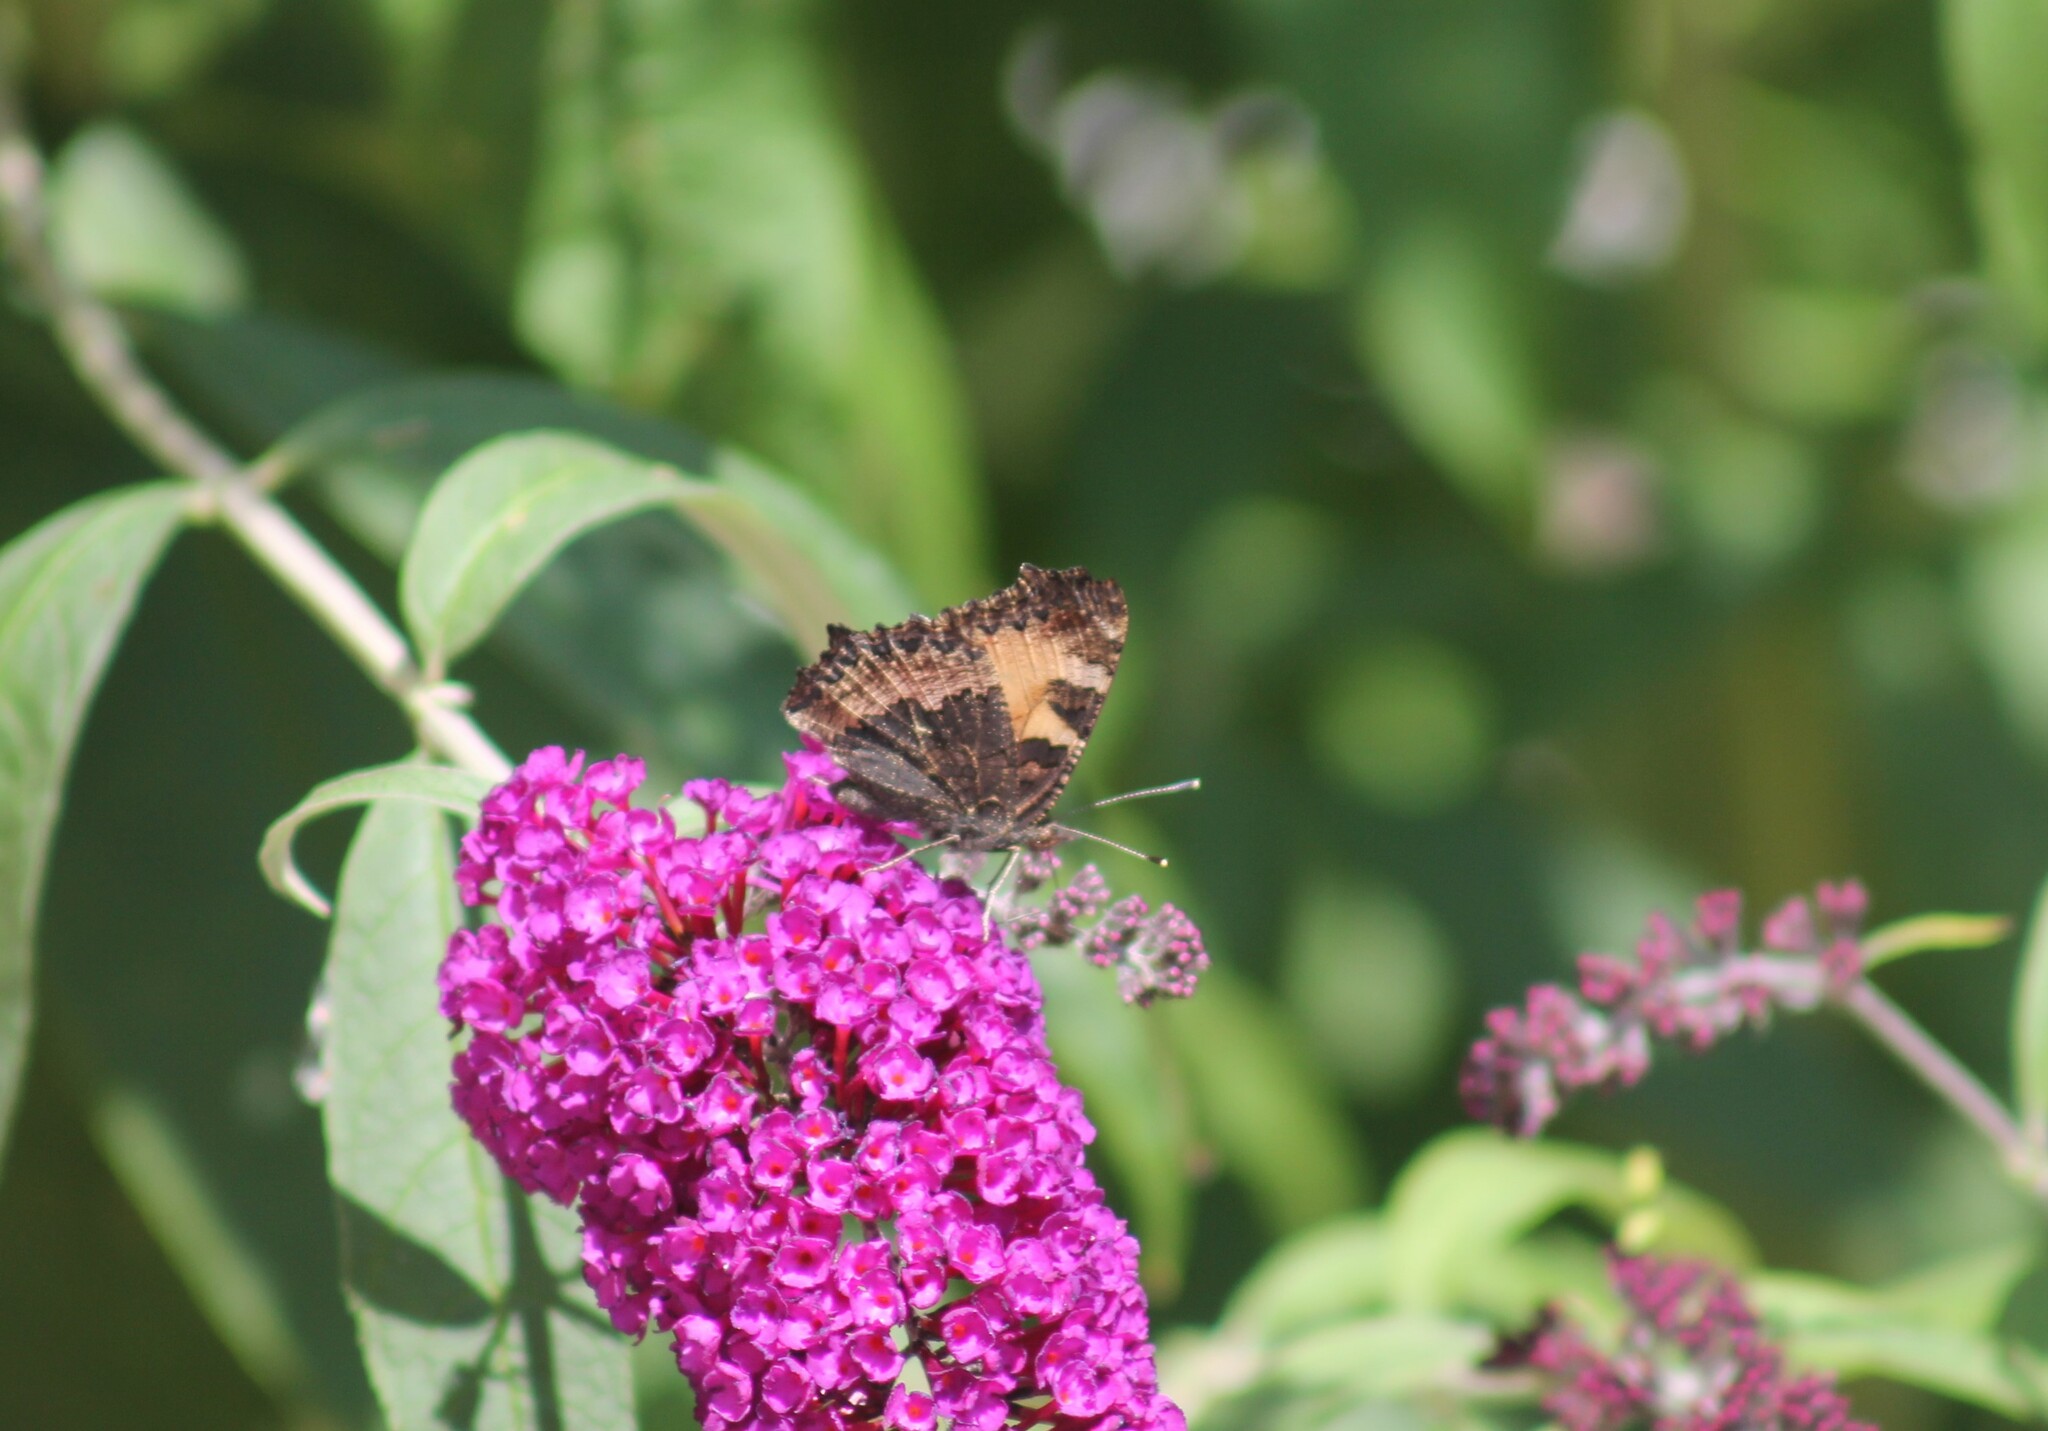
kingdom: Animalia
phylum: Arthropoda
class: Insecta
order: Lepidoptera
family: Nymphalidae
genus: Aglais
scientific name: Aglais urticae
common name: Small tortoiseshell
